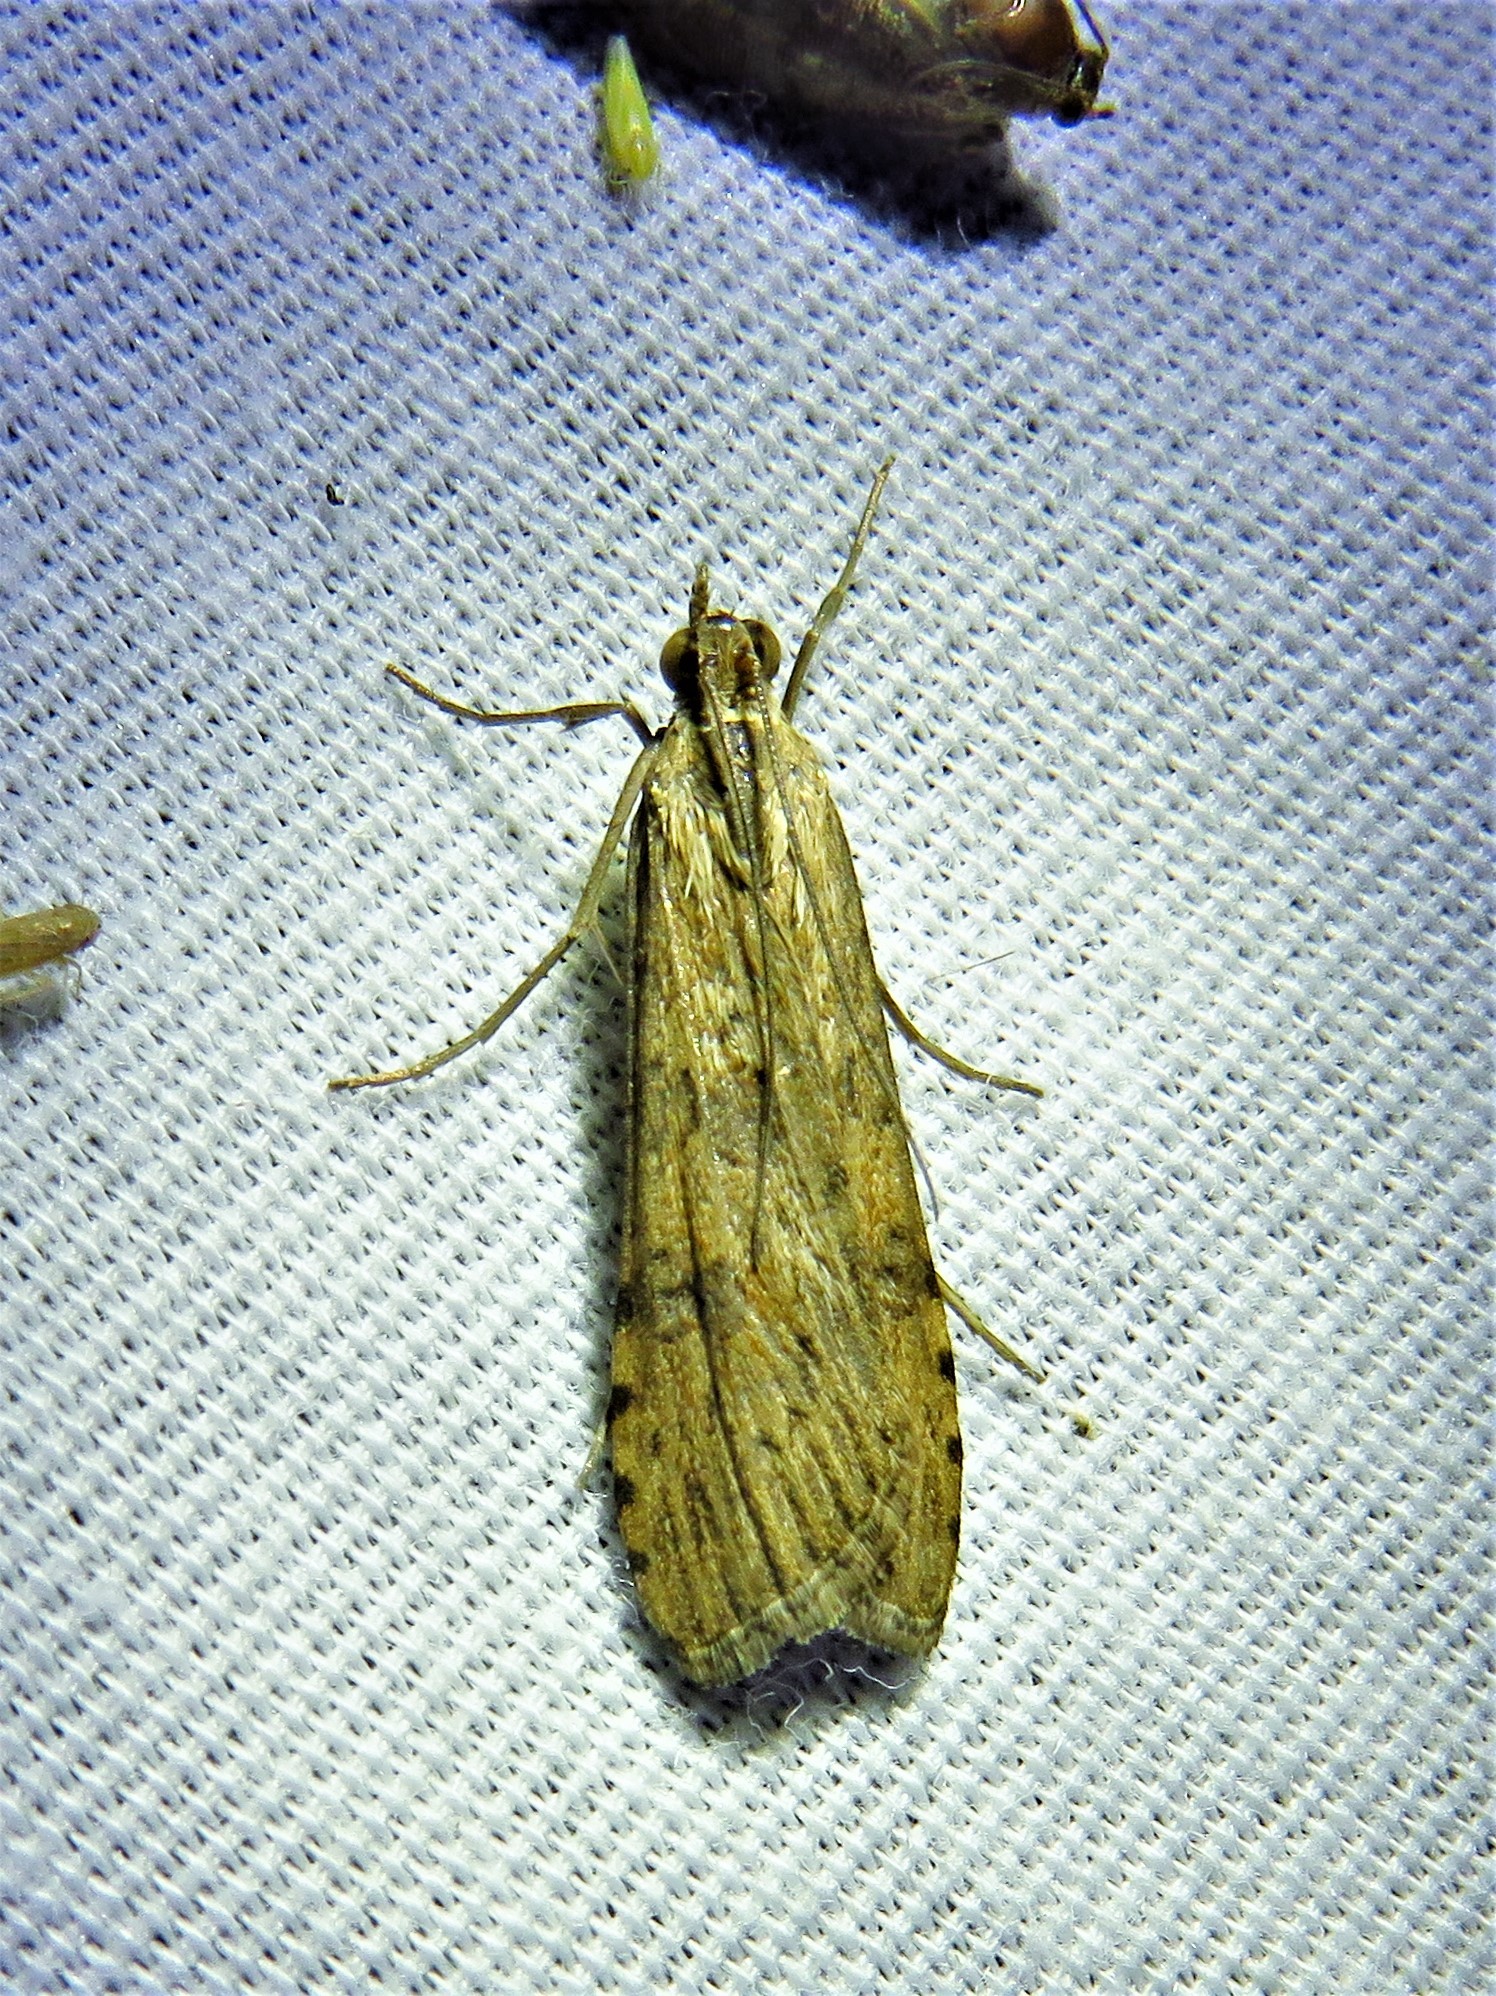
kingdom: Animalia
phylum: Arthropoda
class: Insecta
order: Lepidoptera
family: Crambidae
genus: Nomophila
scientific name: Nomophila nearctica
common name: American rush veneer
